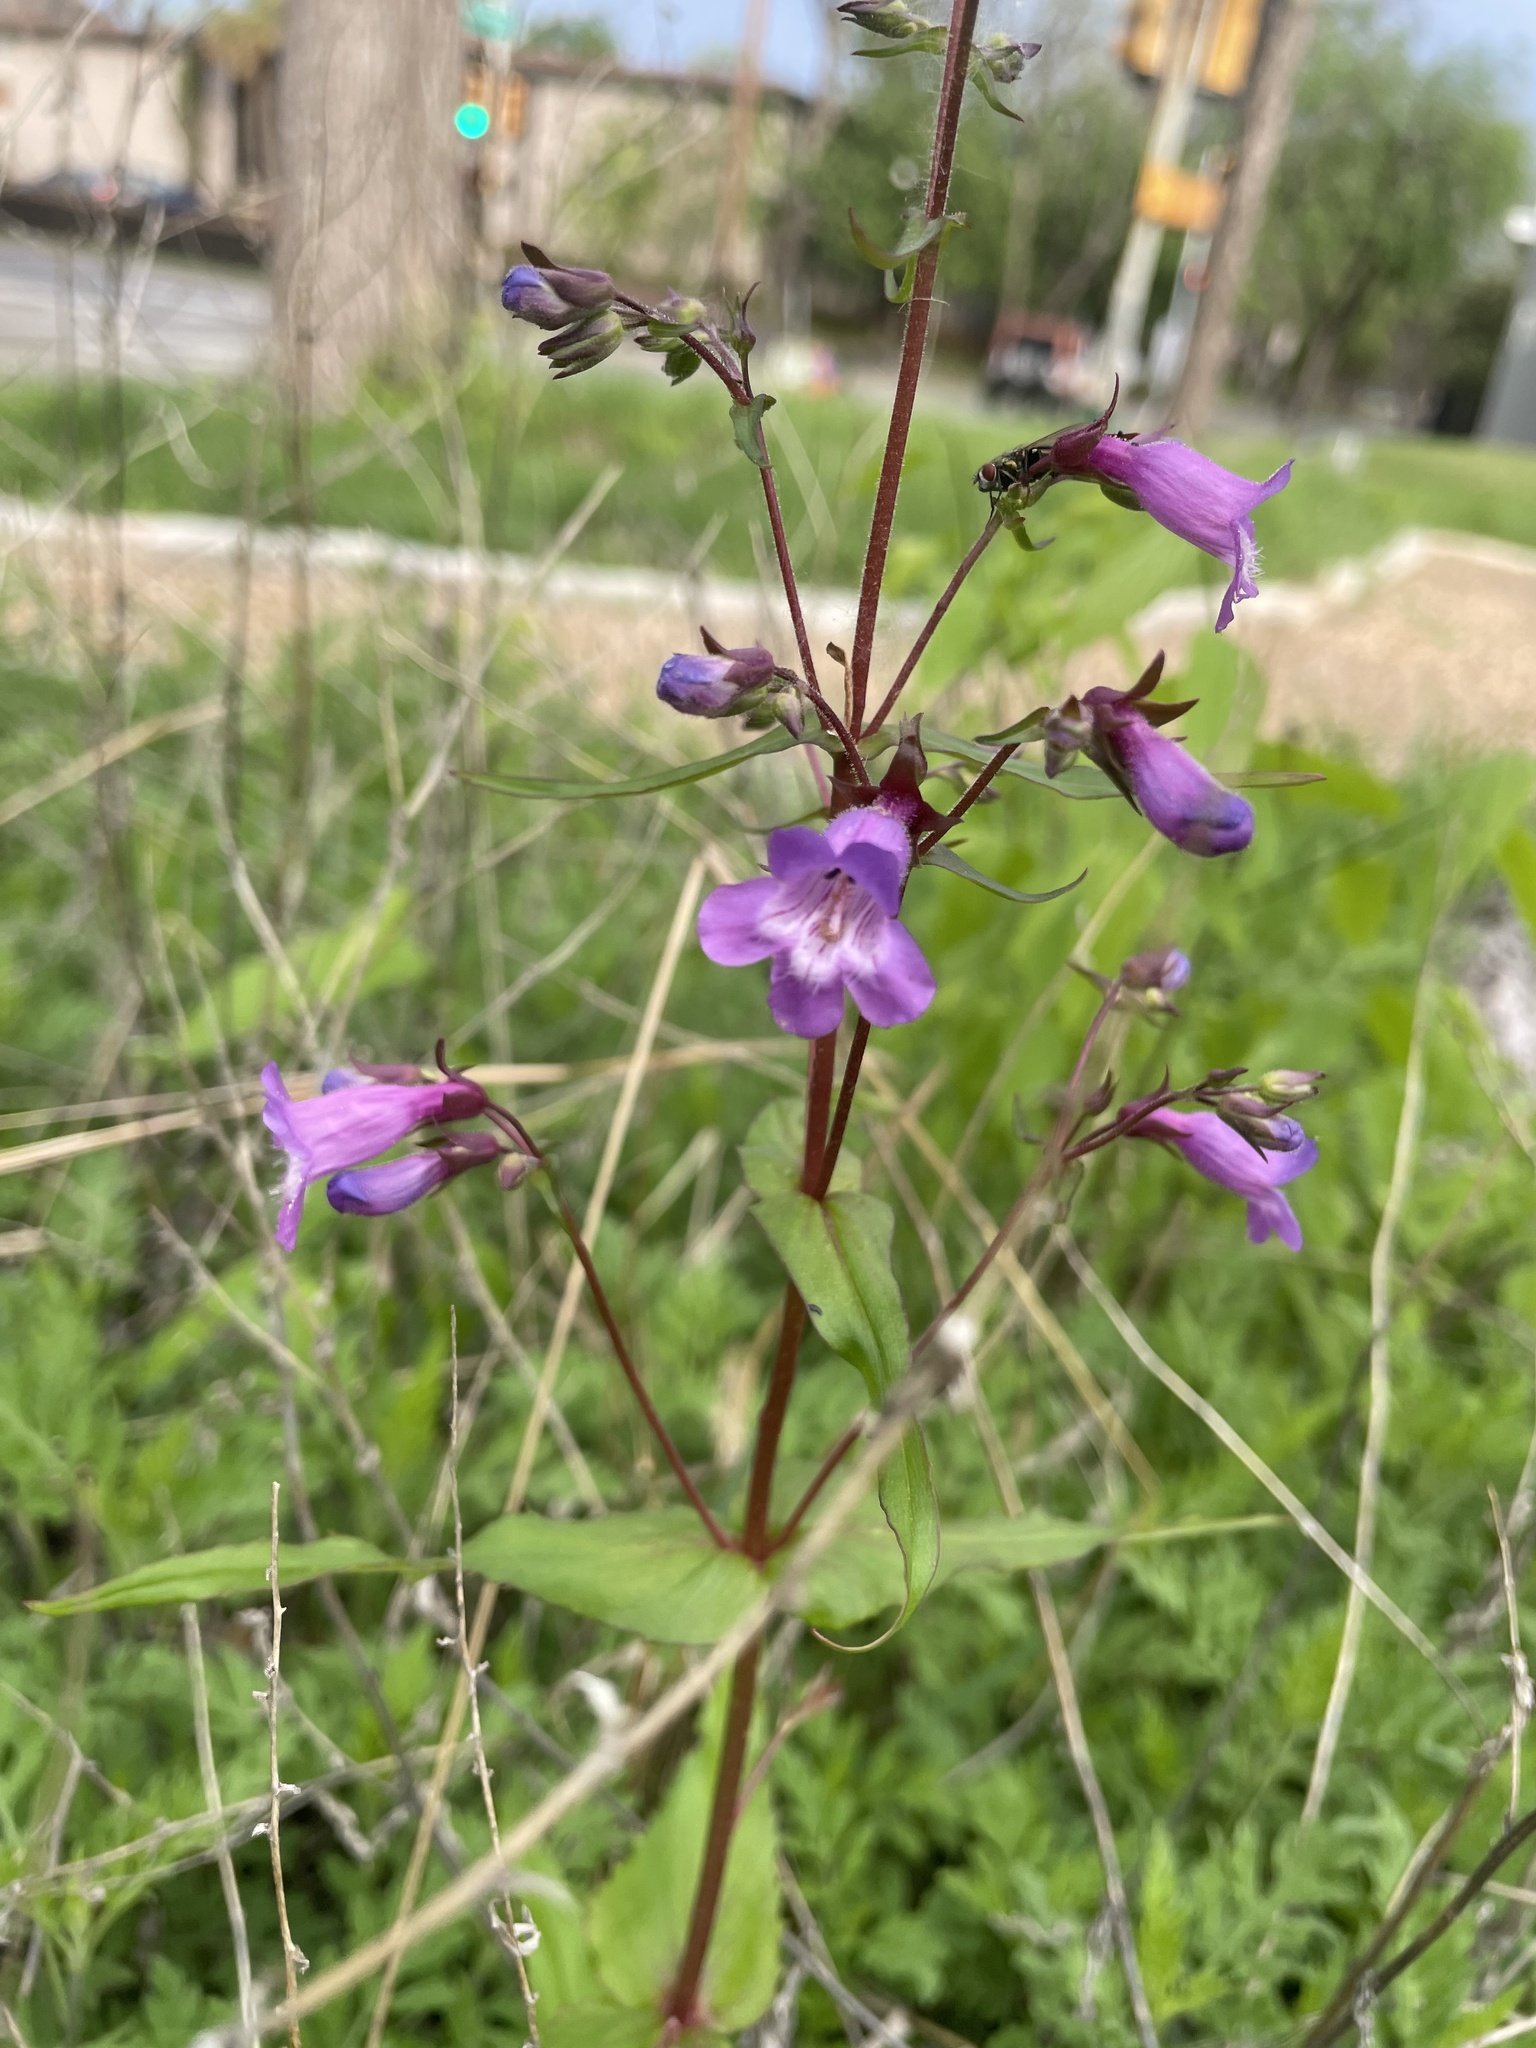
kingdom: Plantae
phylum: Tracheophyta
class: Magnoliopsida
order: Lamiales
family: Plantaginaceae
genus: Penstemon
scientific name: Penstemon tenuis
